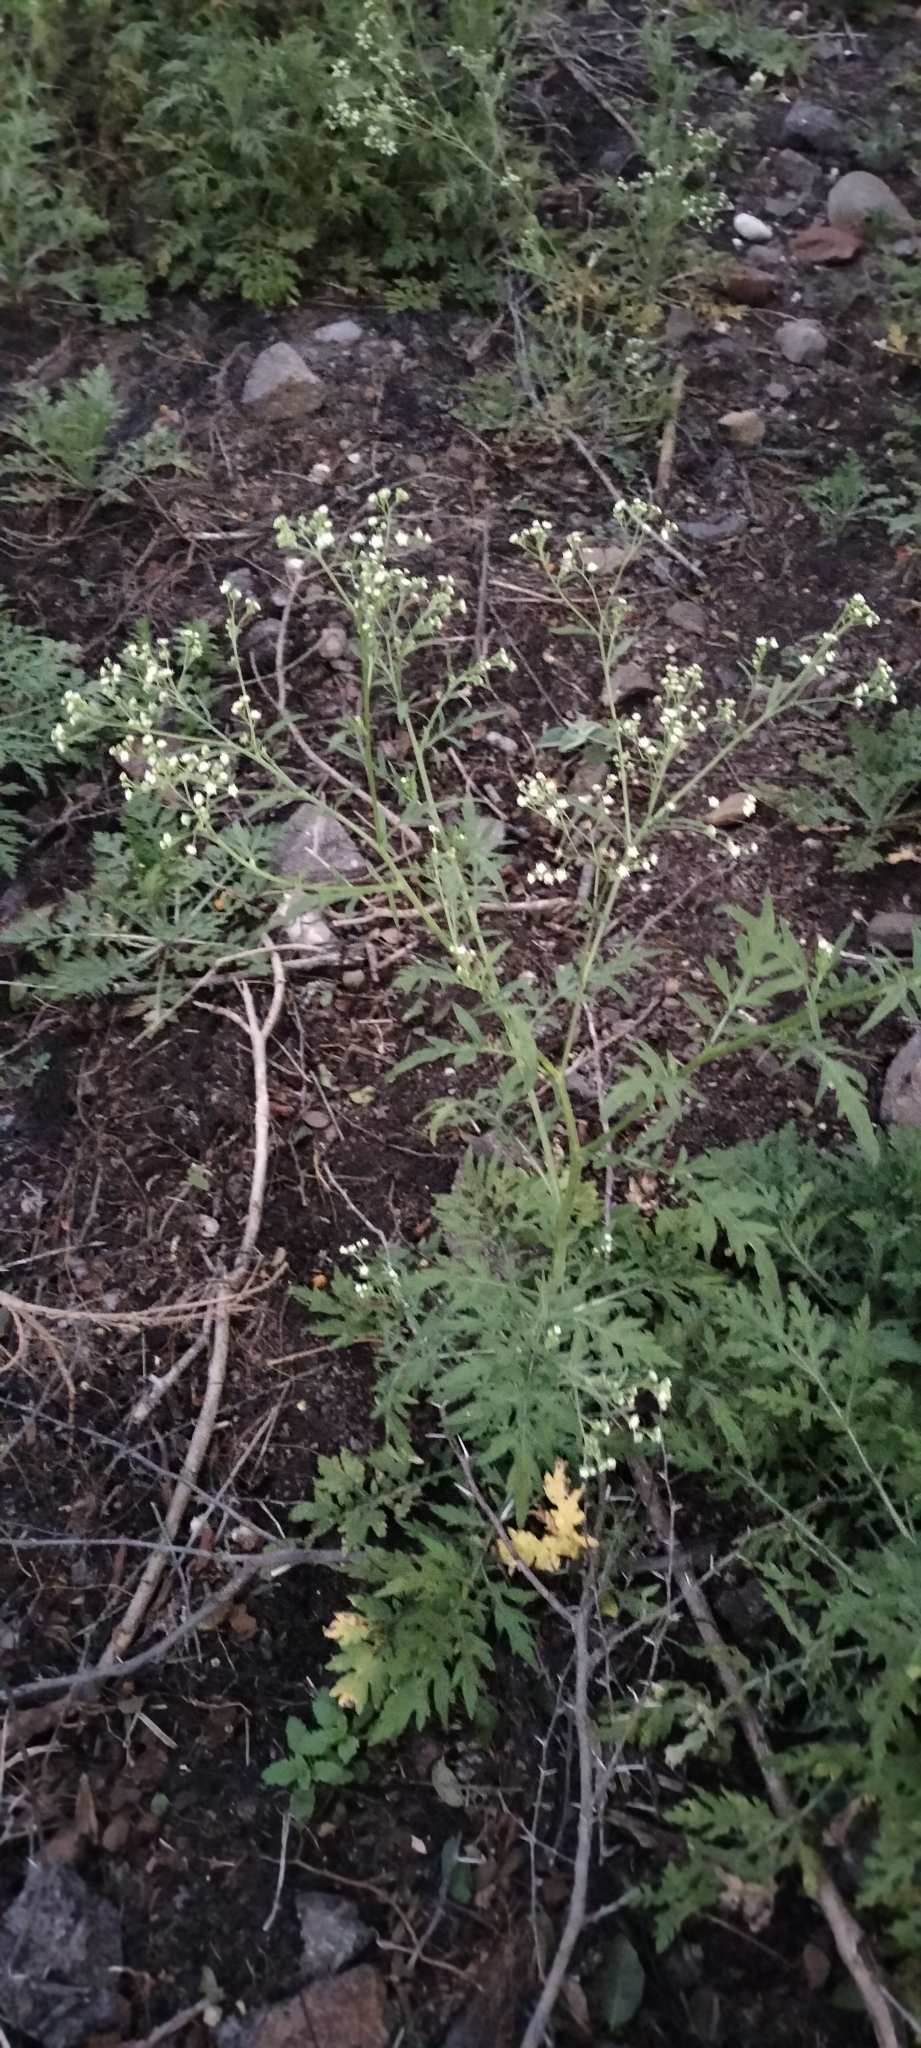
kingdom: Plantae
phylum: Tracheophyta
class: Magnoliopsida
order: Asterales
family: Asteraceae
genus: Parthenium
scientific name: Parthenium hysterophorus
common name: Santa maria feverfew
